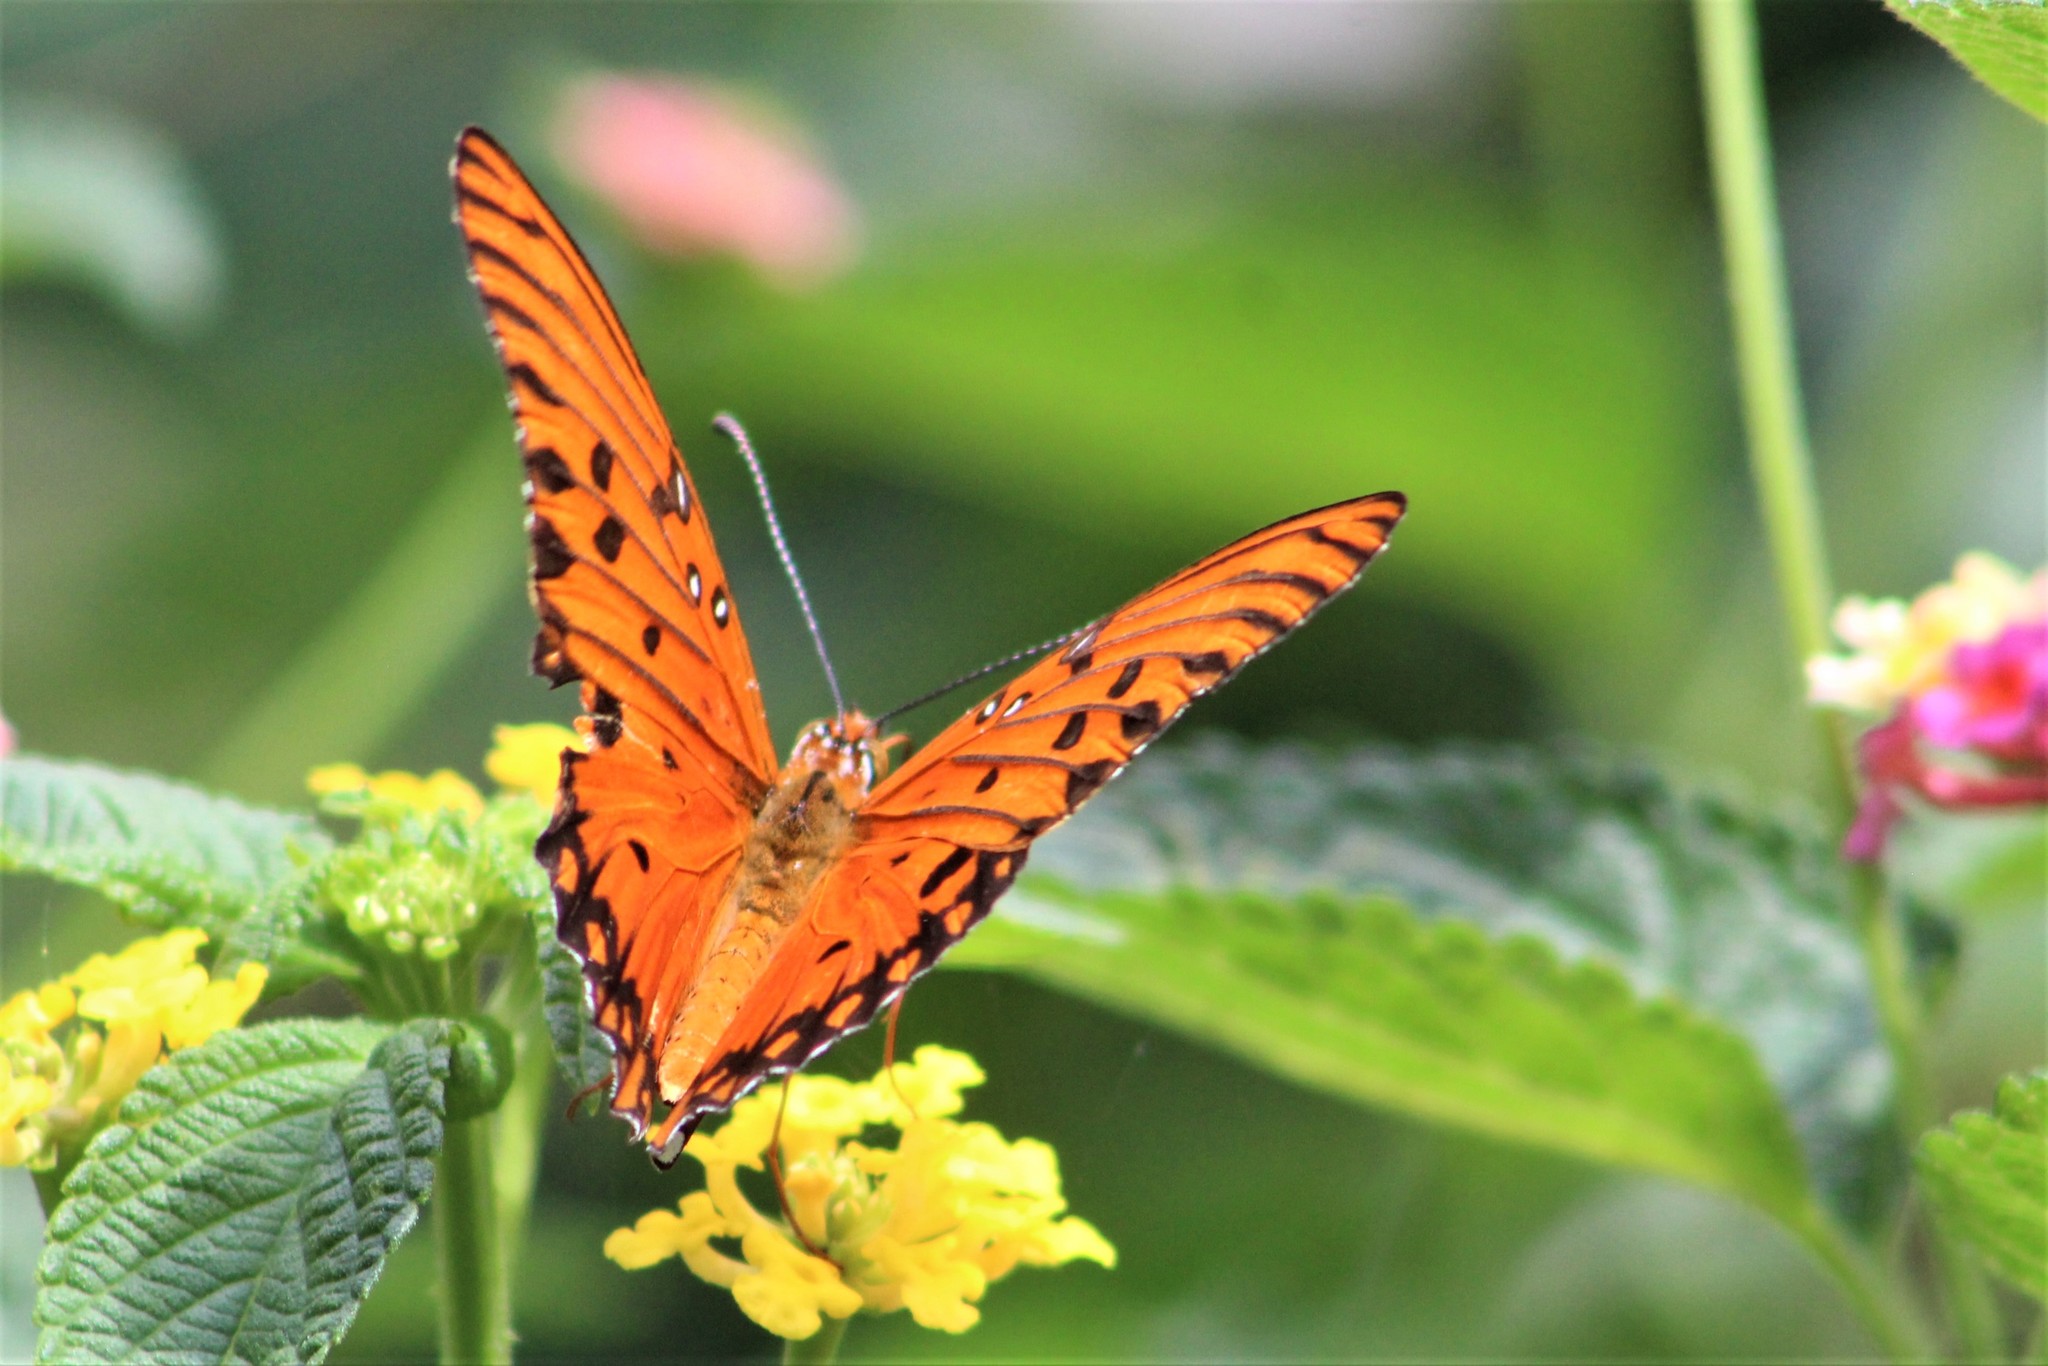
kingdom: Animalia
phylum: Arthropoda
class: Insecta
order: Lepidoptera
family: Nymphalidae
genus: Dione
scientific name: Dione vanillae
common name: Gulf fritillary
